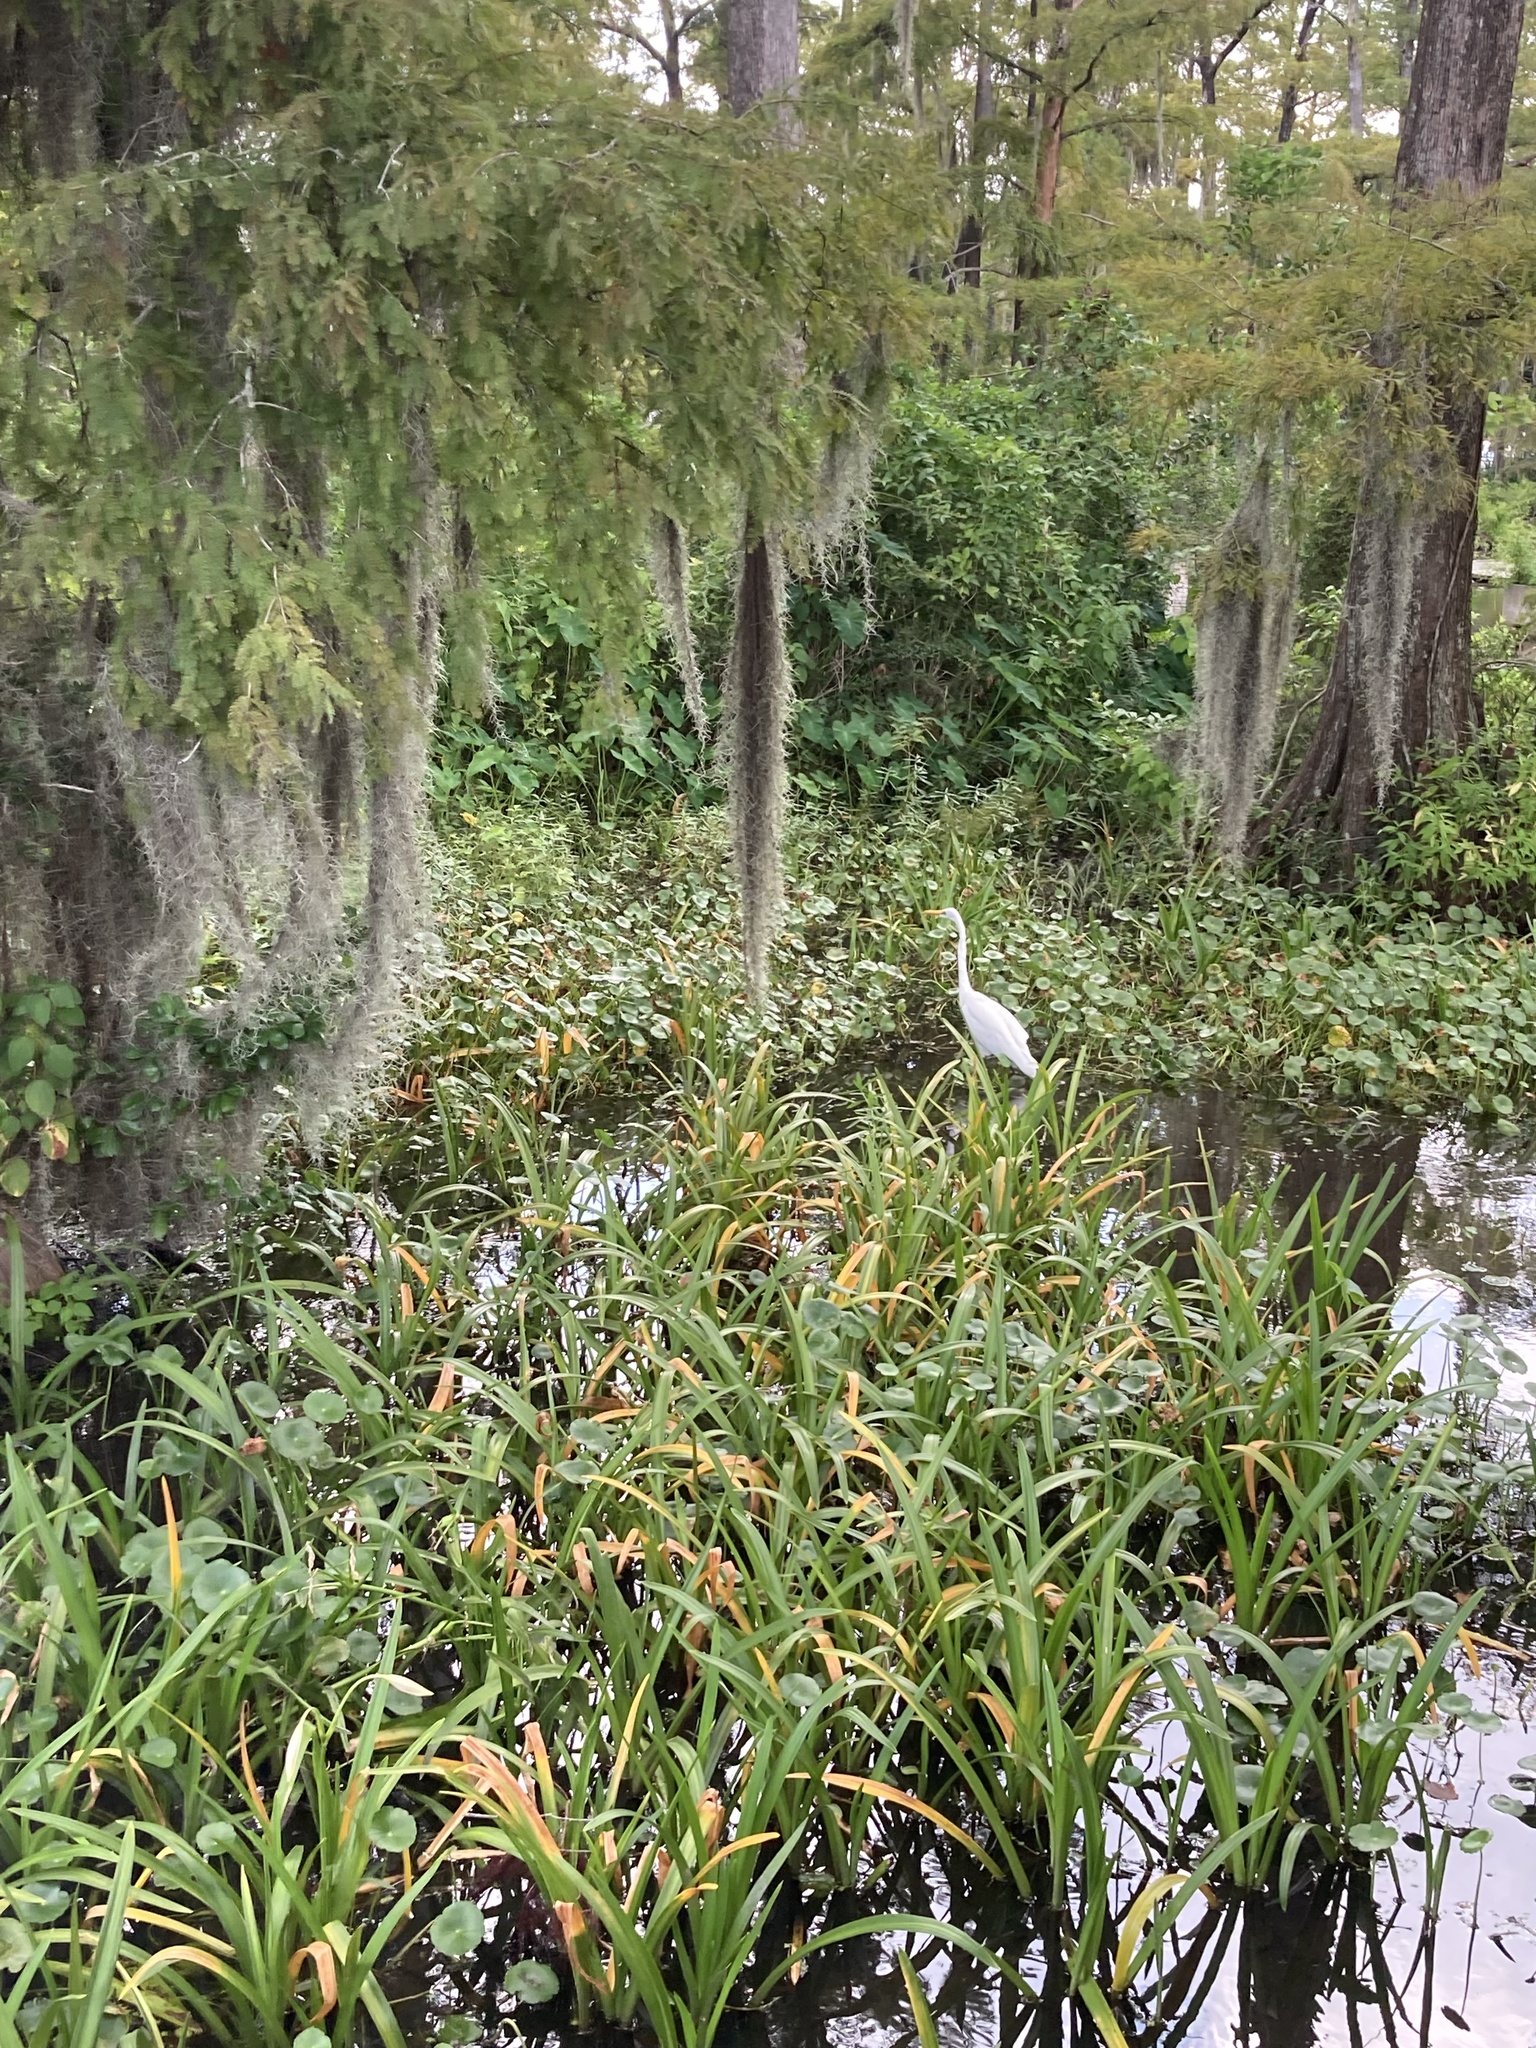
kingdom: Animalia
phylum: Chordata
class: Aves
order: Pelecaniformes
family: Ardeidae
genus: Ardea
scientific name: Ardea alba
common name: Great egret
